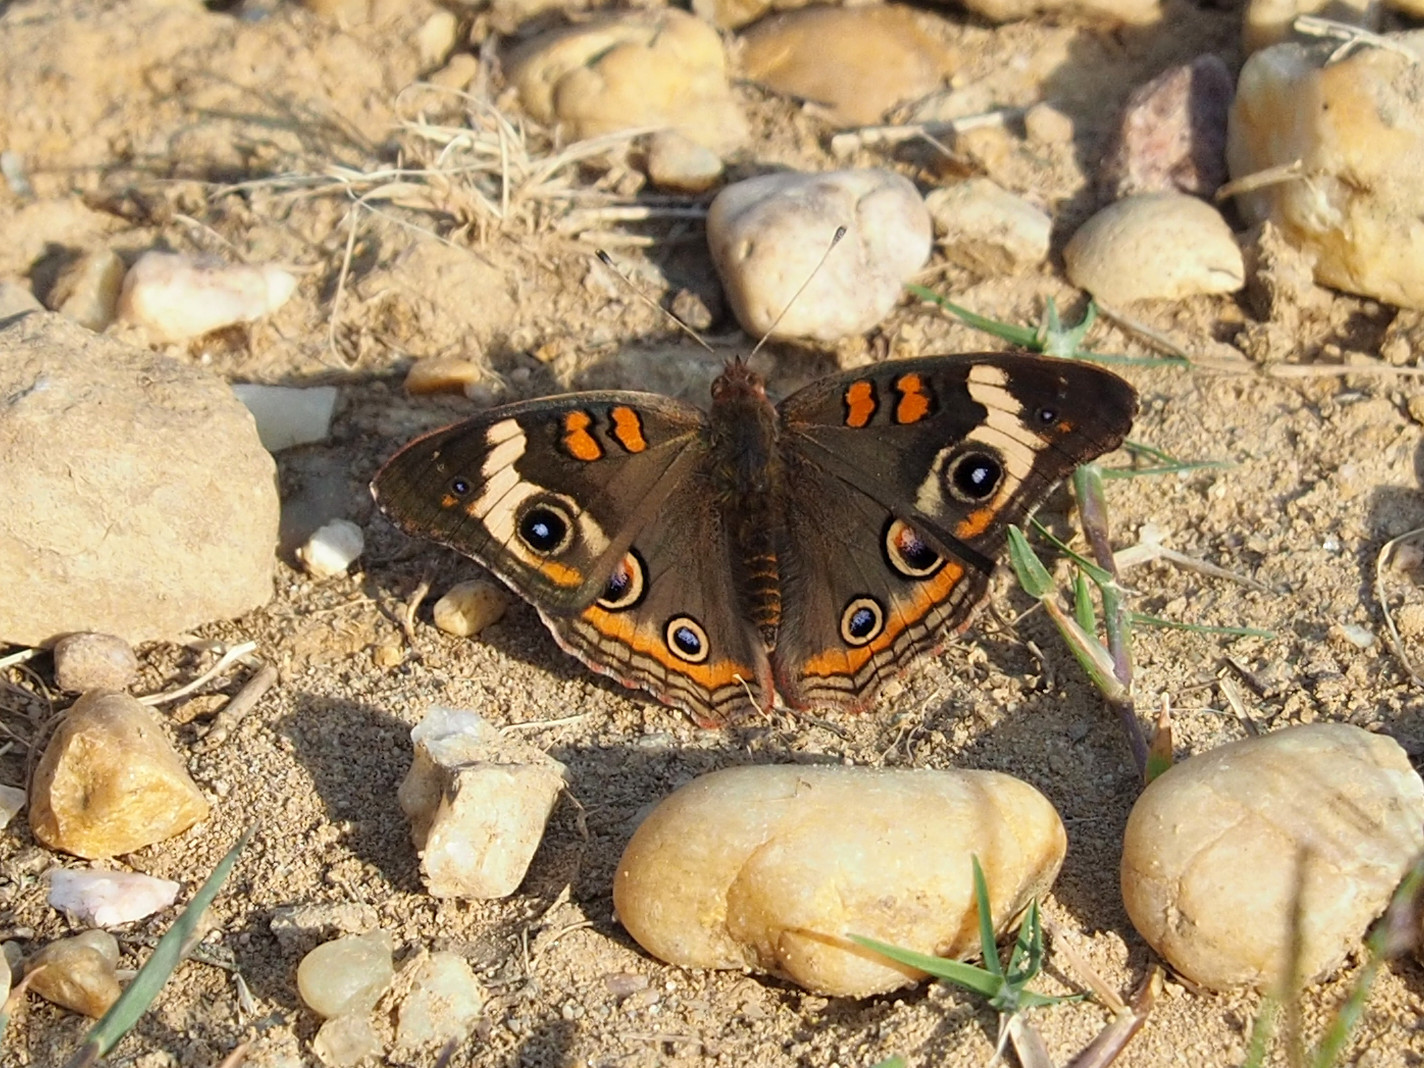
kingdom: Animalia
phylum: Arthropoda
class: Insecta
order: Lepidoptera
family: Nymphalidae
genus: Junonia
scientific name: Junonia coenia
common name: Common buckeye
